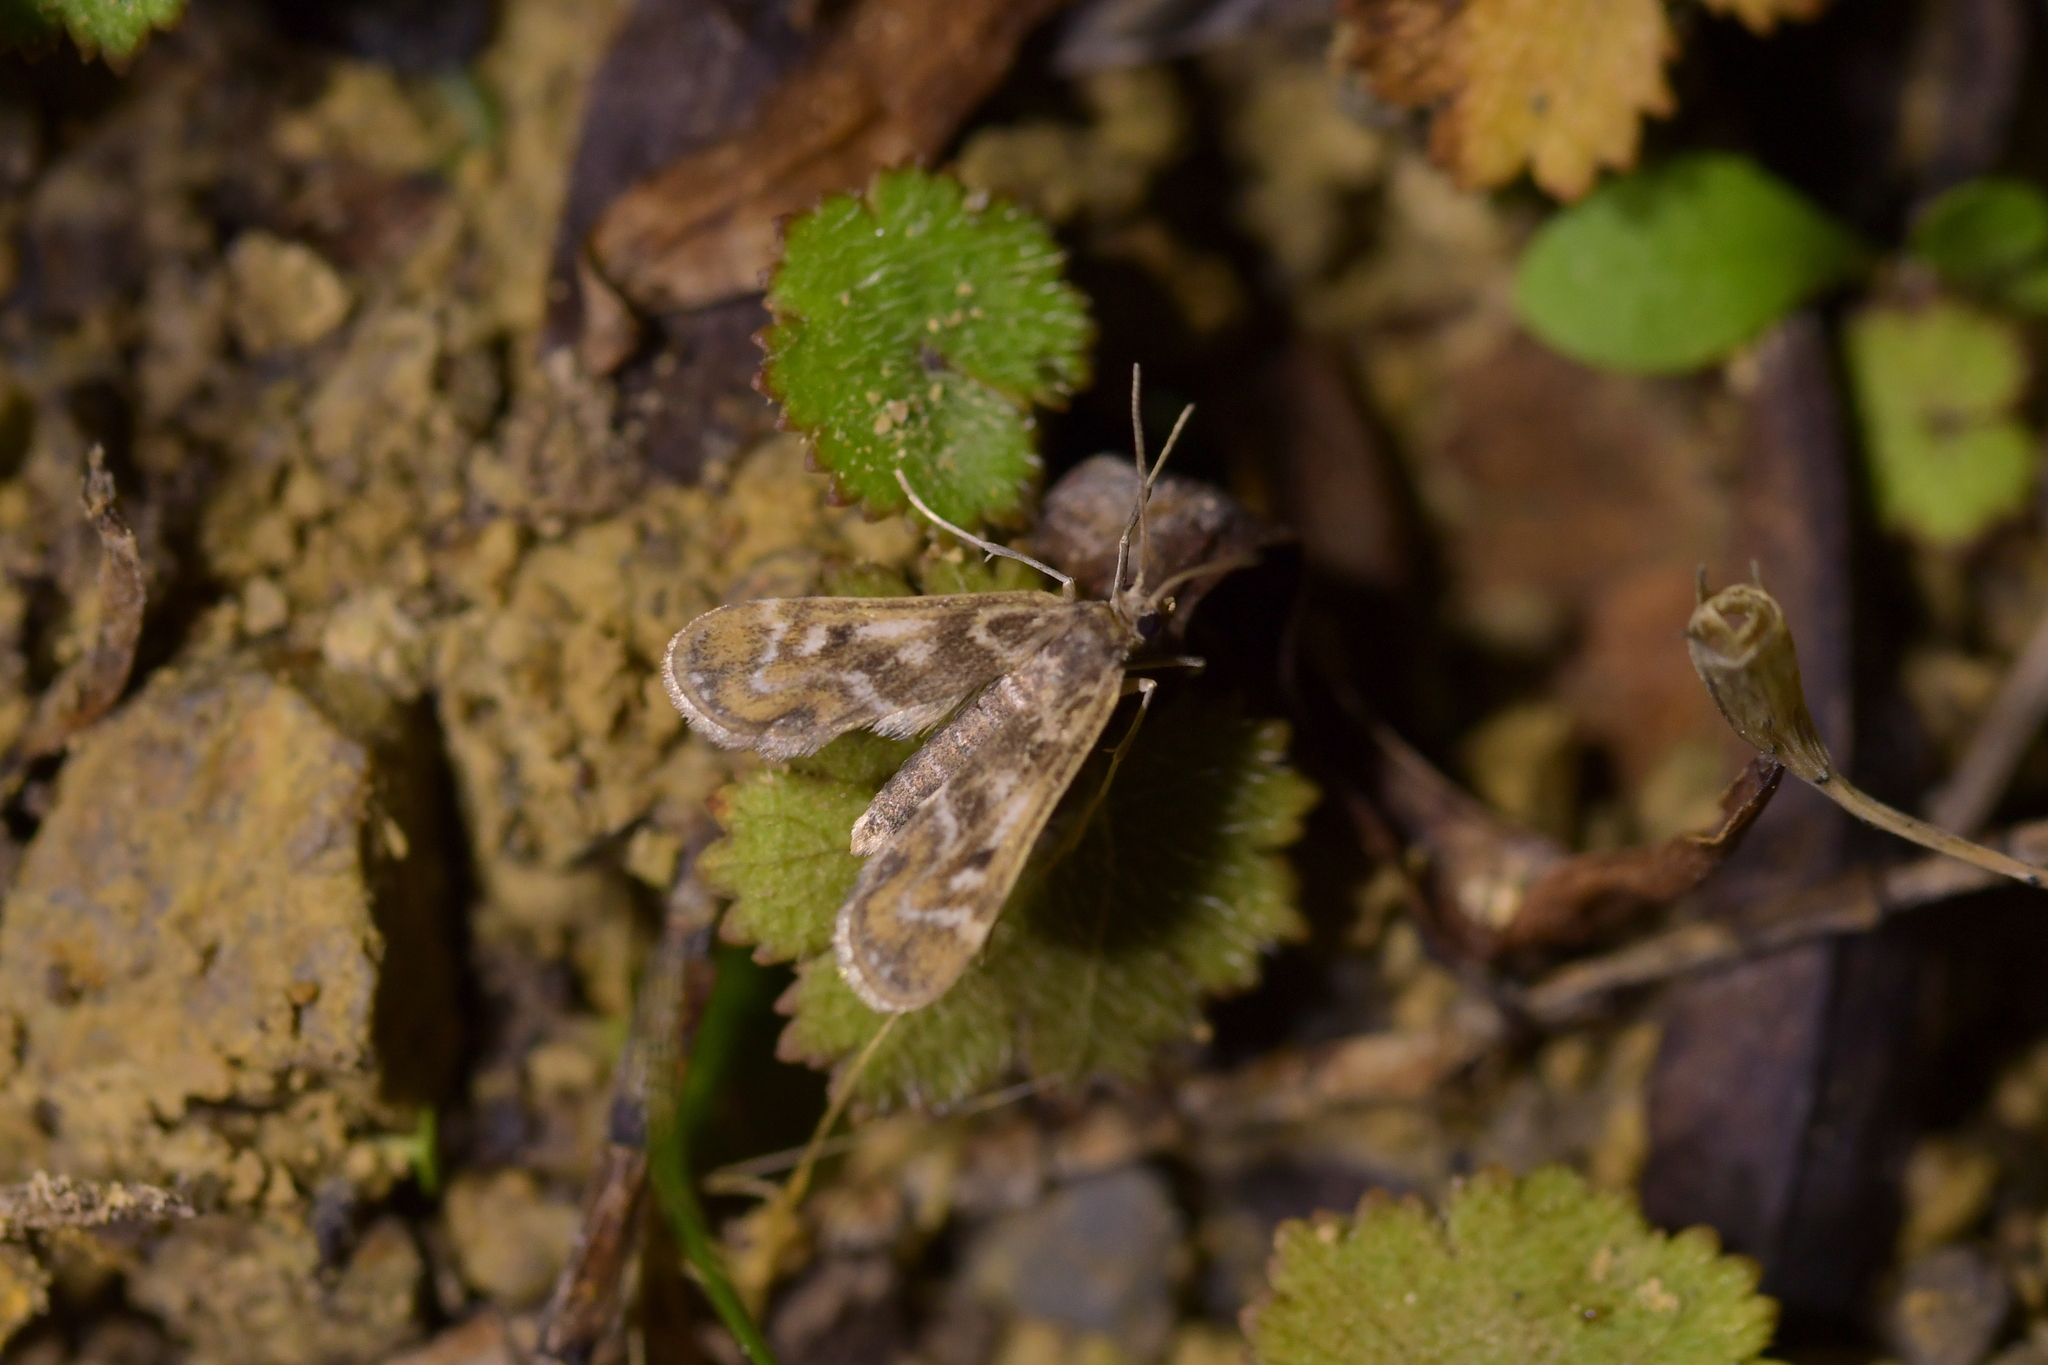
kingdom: Animalia
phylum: Arthropoda
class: Insecta
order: Lepidoptera
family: Crambidae
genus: Hygraula
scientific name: Hygraula nitens
